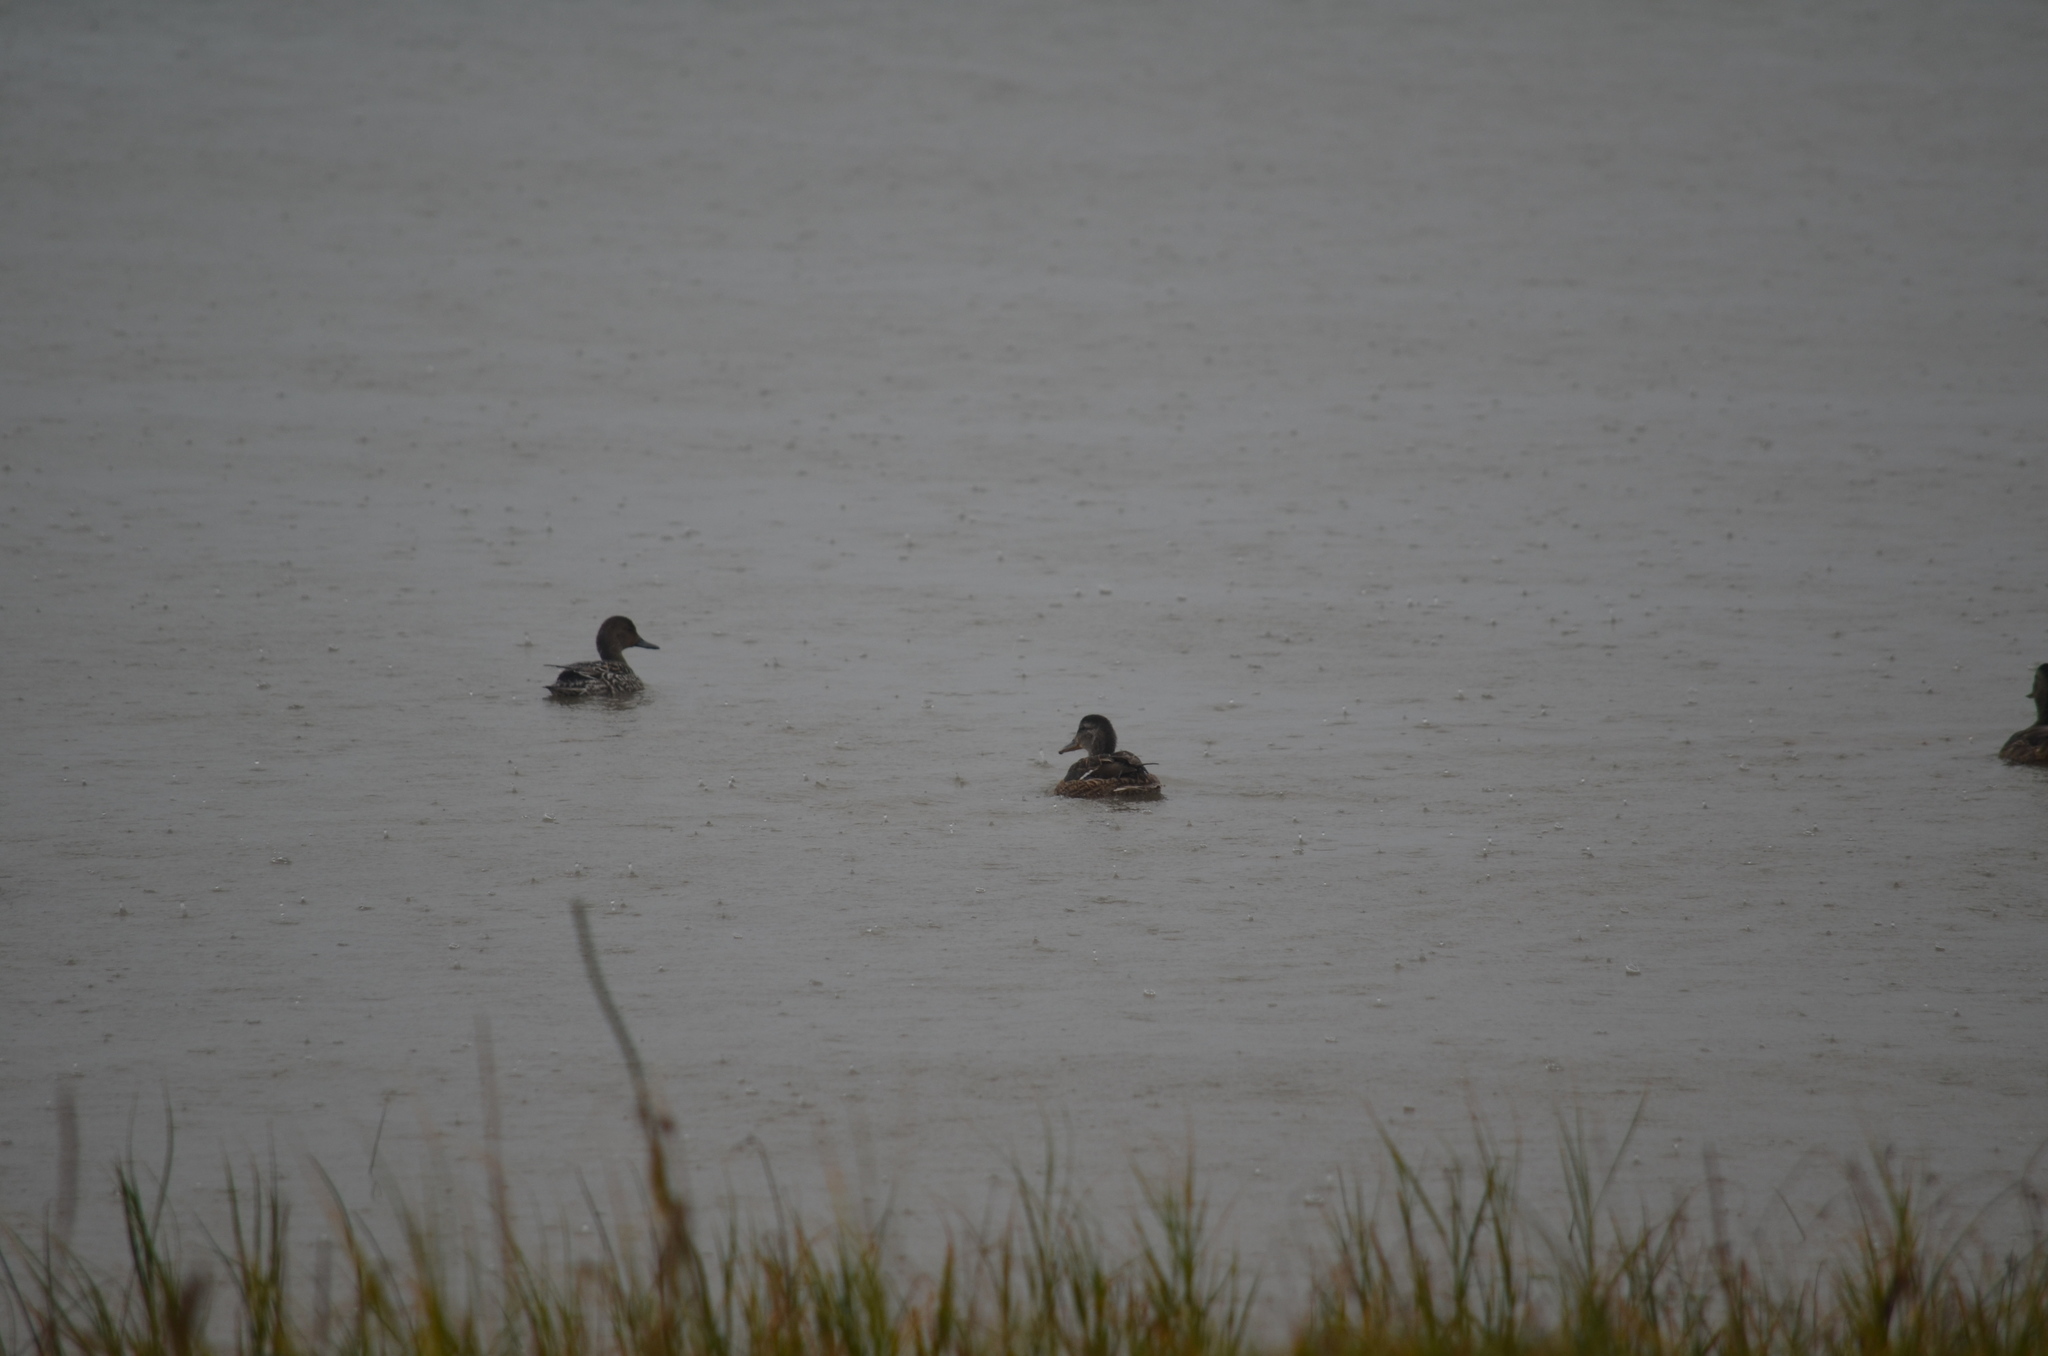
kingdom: Animalia
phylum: Chordata
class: Aves
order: Anseriformes
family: Anatidae
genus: Anas
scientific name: Anas acuta
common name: Northern pintail
